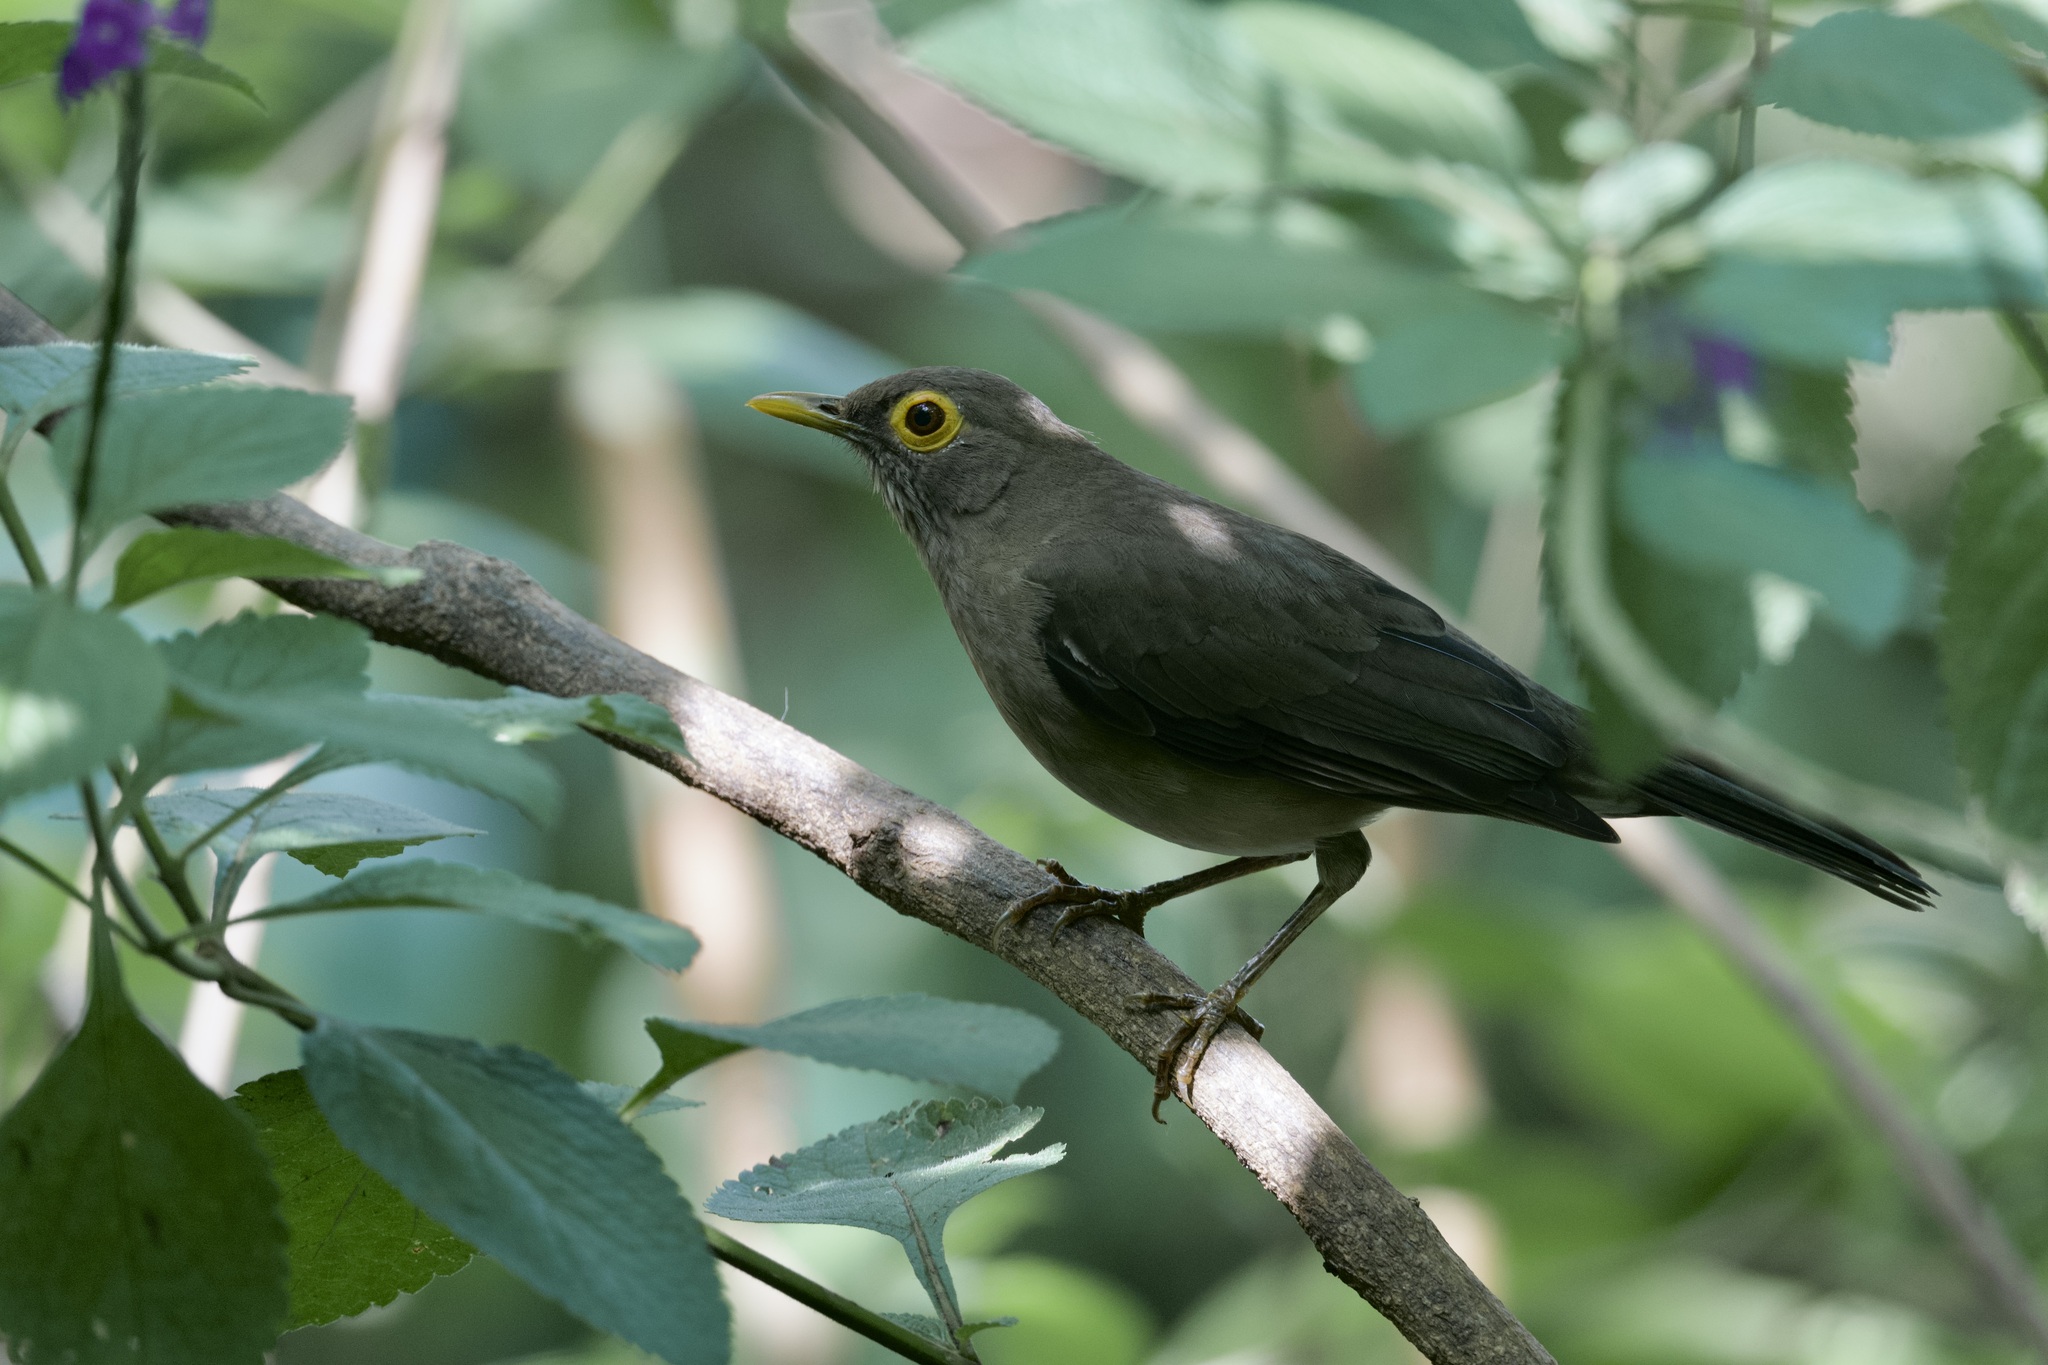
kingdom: Animalia
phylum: Chordata
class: Aves
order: Passeriformes
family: Turdidae
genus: Turdus
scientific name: Turdus nudigenis
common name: Spectacled thrush
